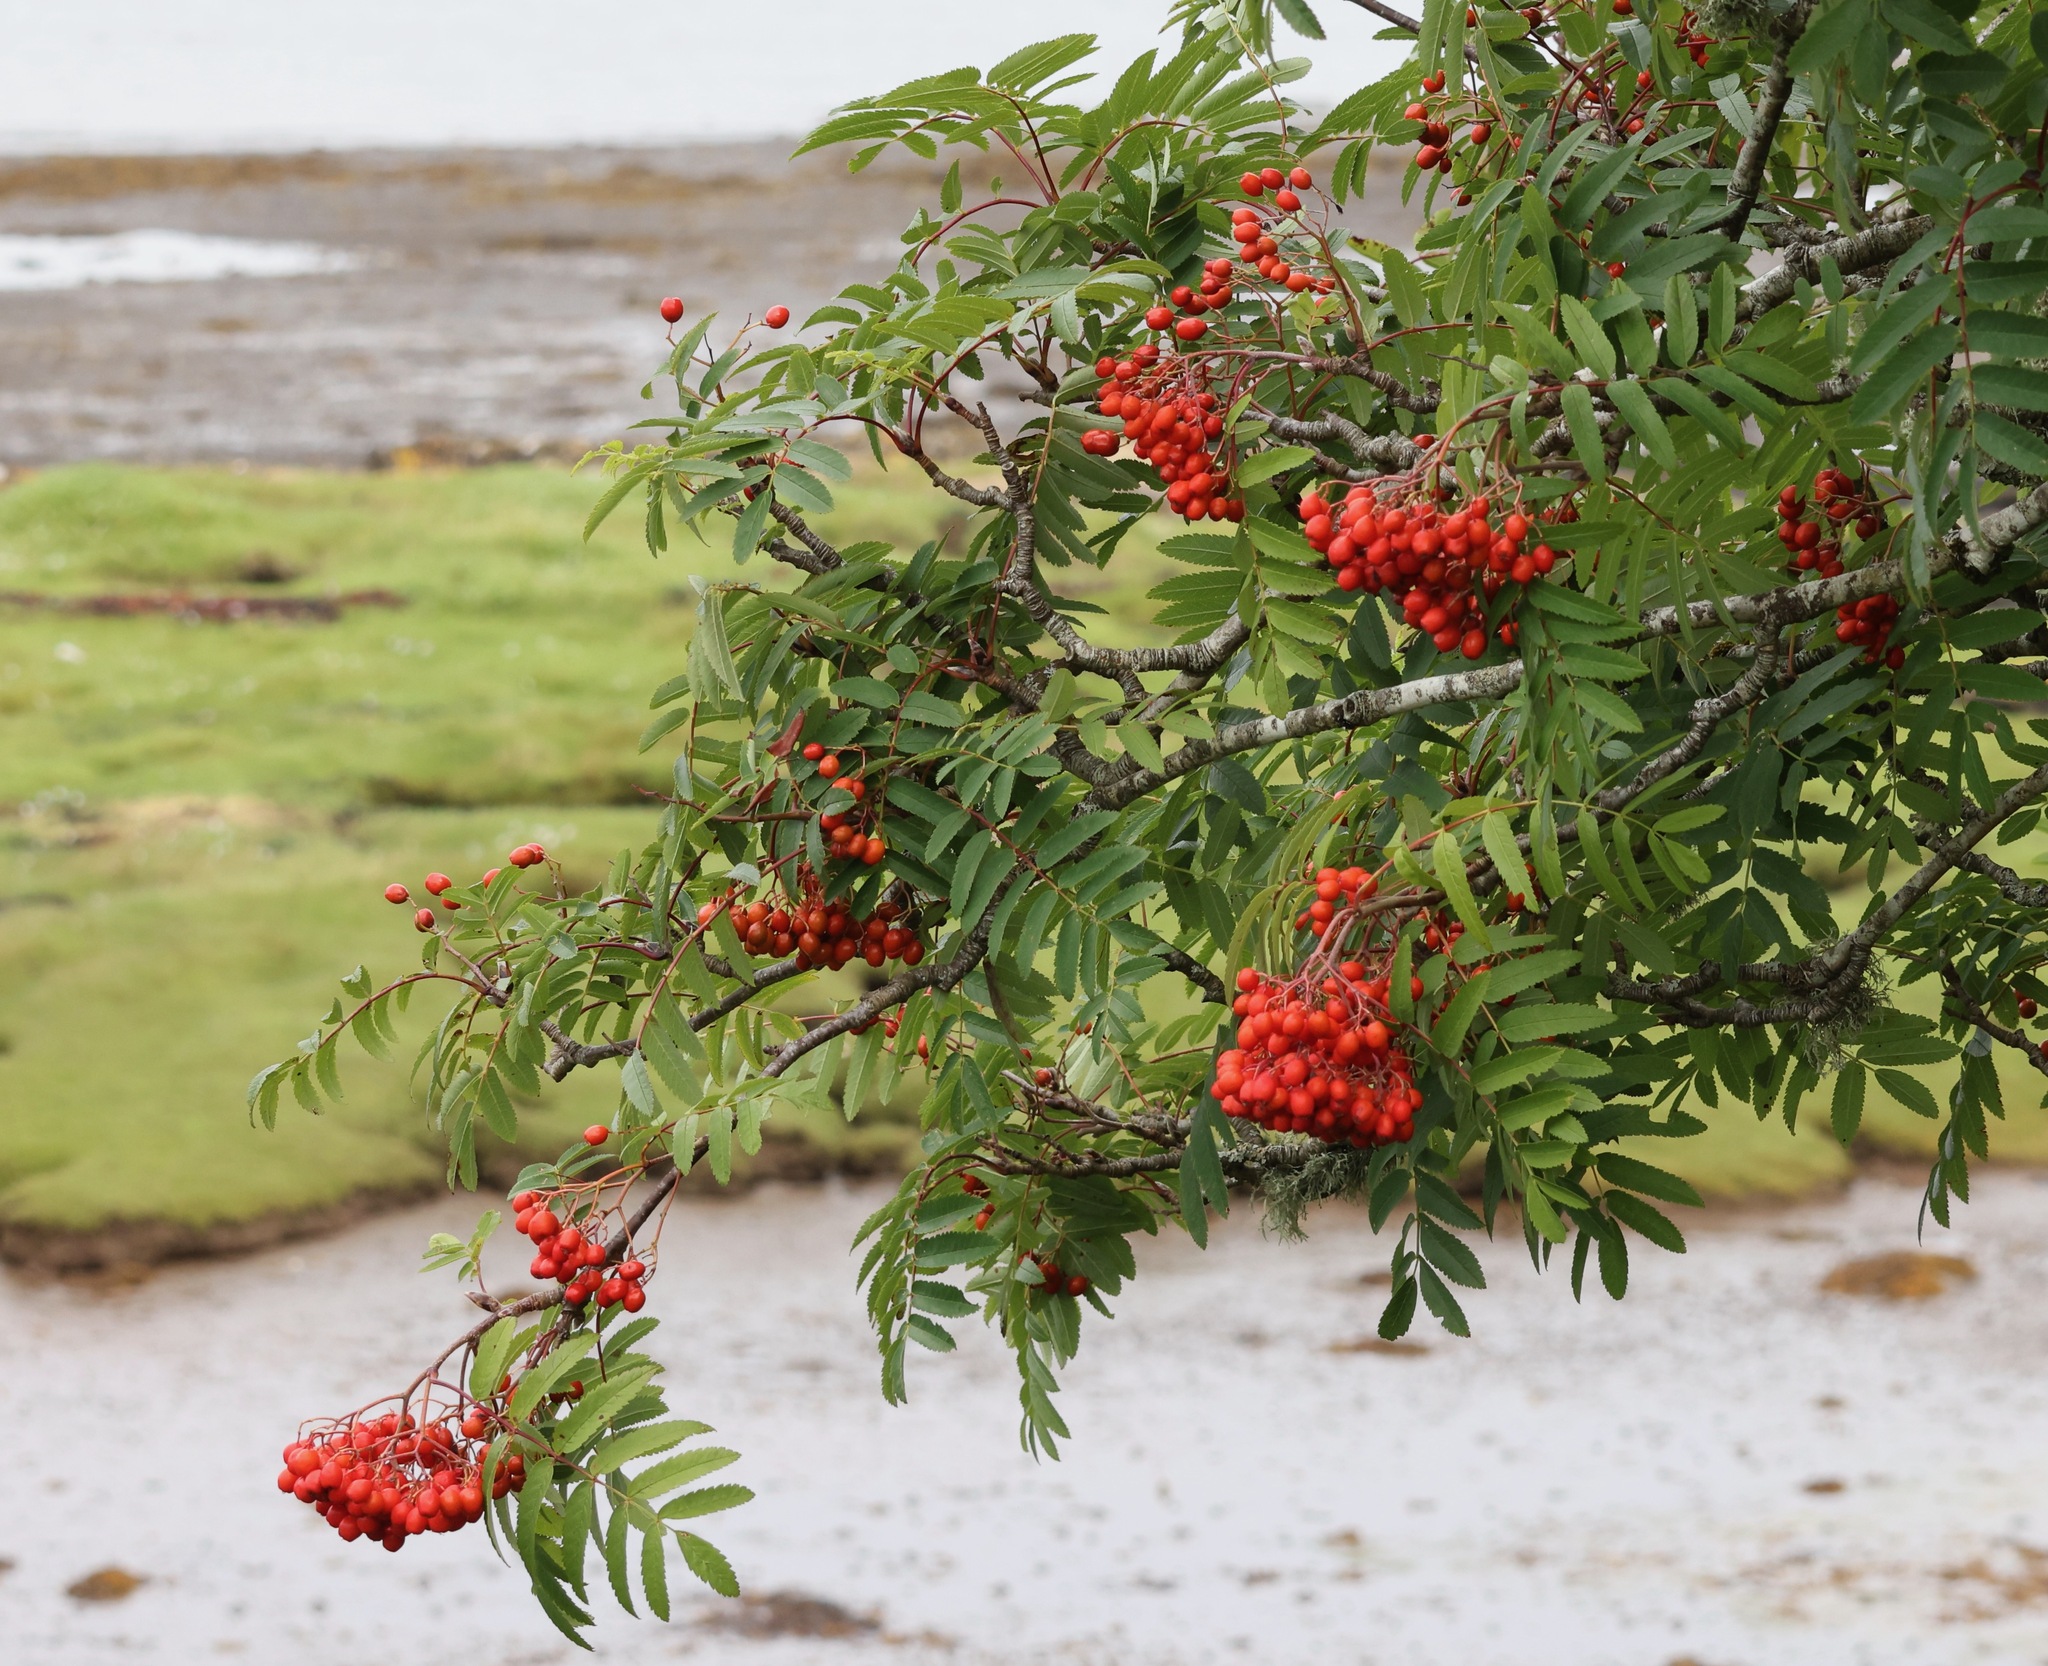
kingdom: Plantae
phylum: Tracheophyta
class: Magnoliopsida
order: Rosales
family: Rosaceae
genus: Sorbus
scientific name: Sorbus aucuparia
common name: Rowan
